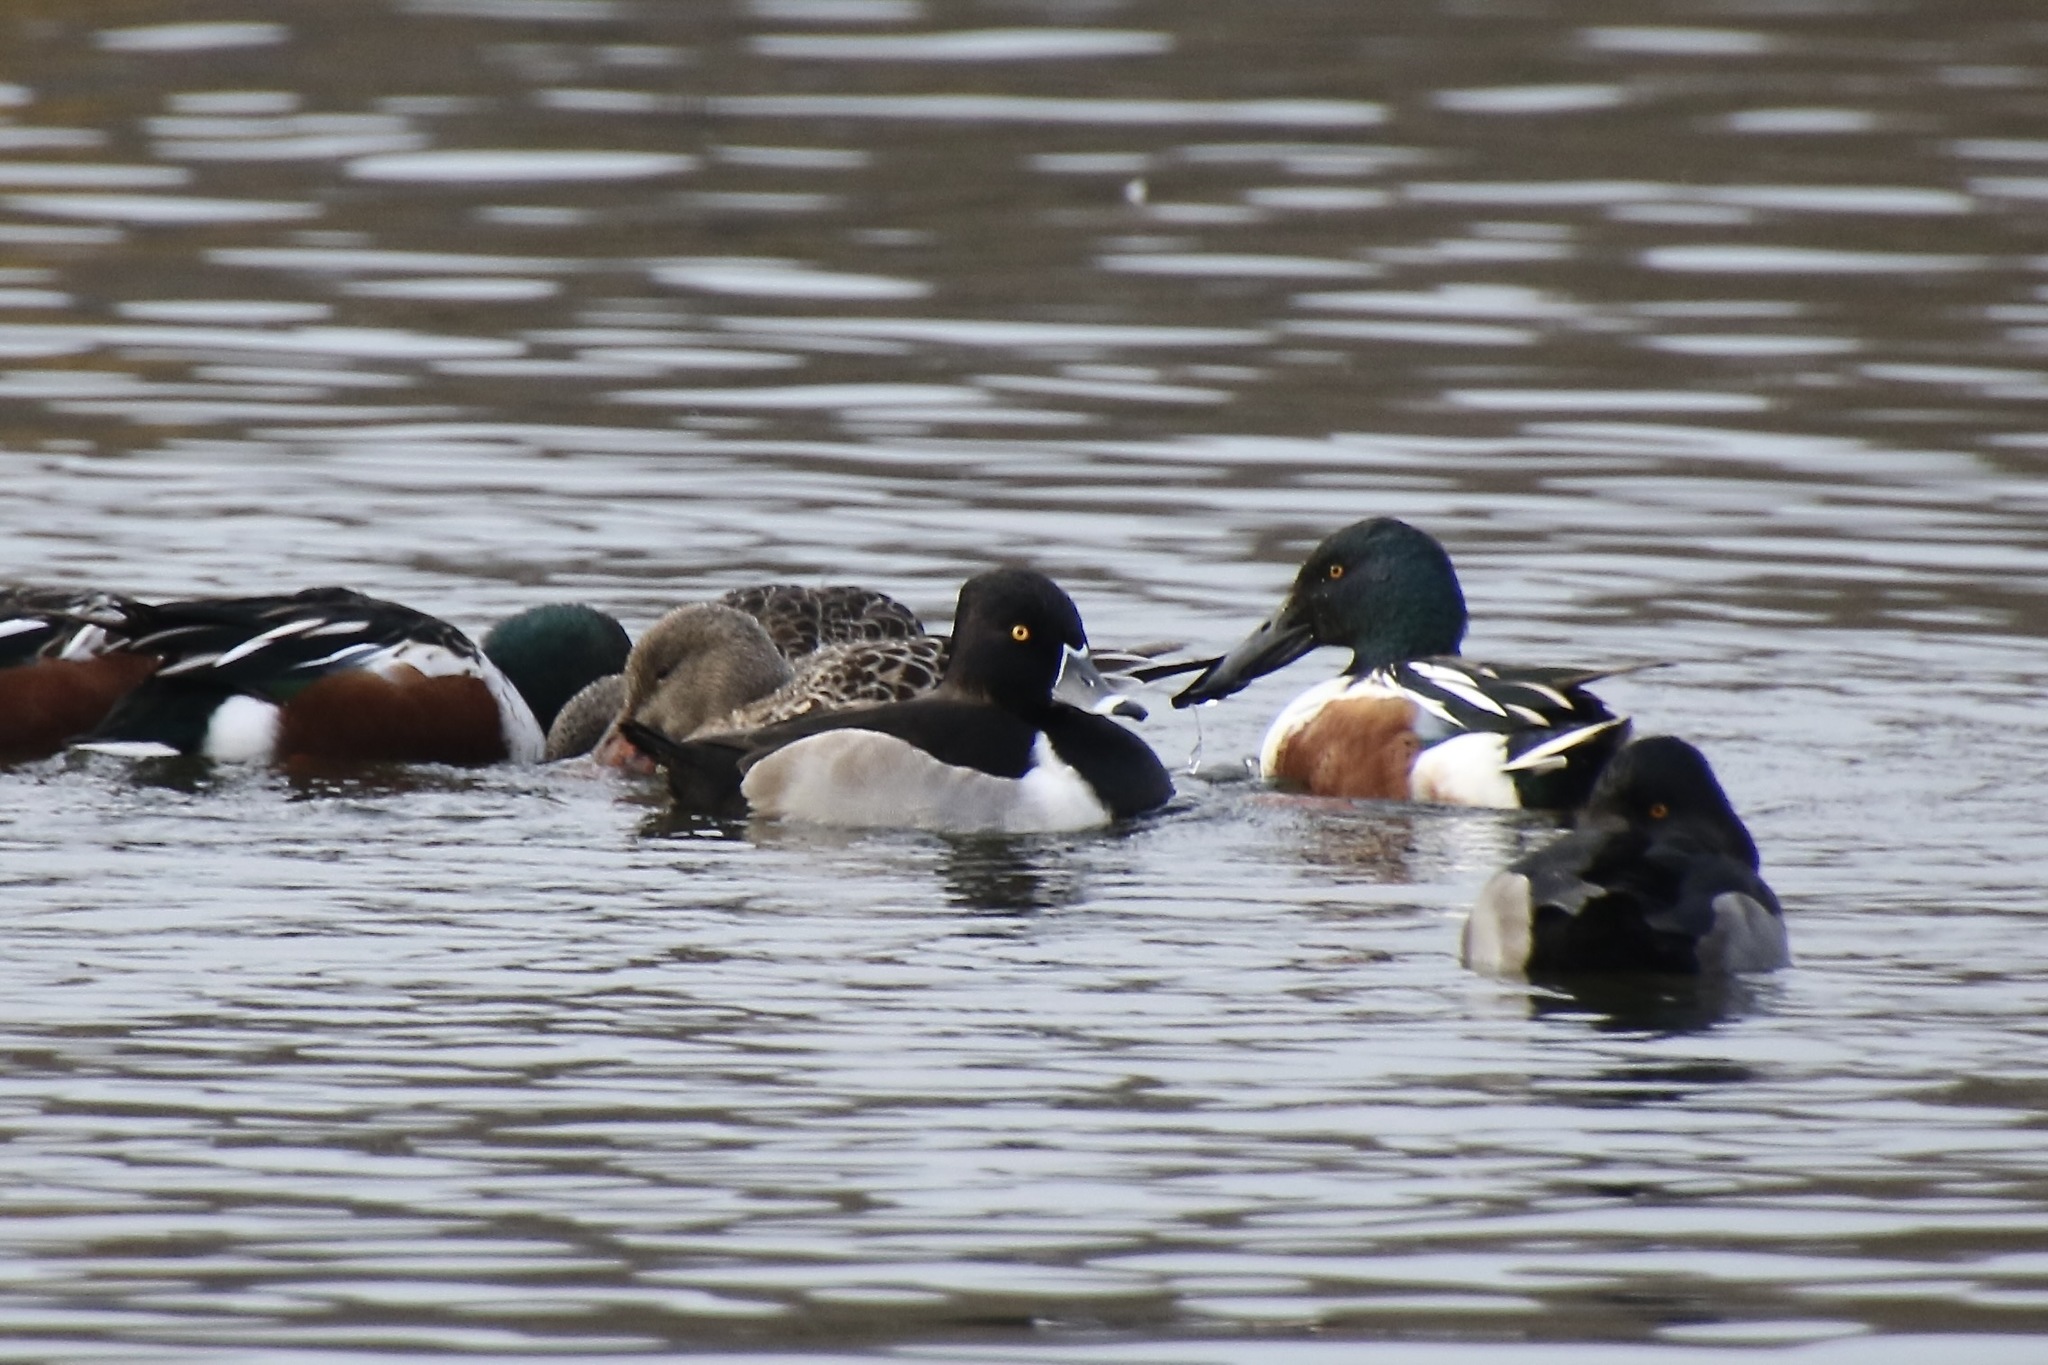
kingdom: Animalia
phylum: Chordata
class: Aves
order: Anseriformes
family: Anatidae
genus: Aythya
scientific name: Aythya collaris
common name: Ring-necked duck
